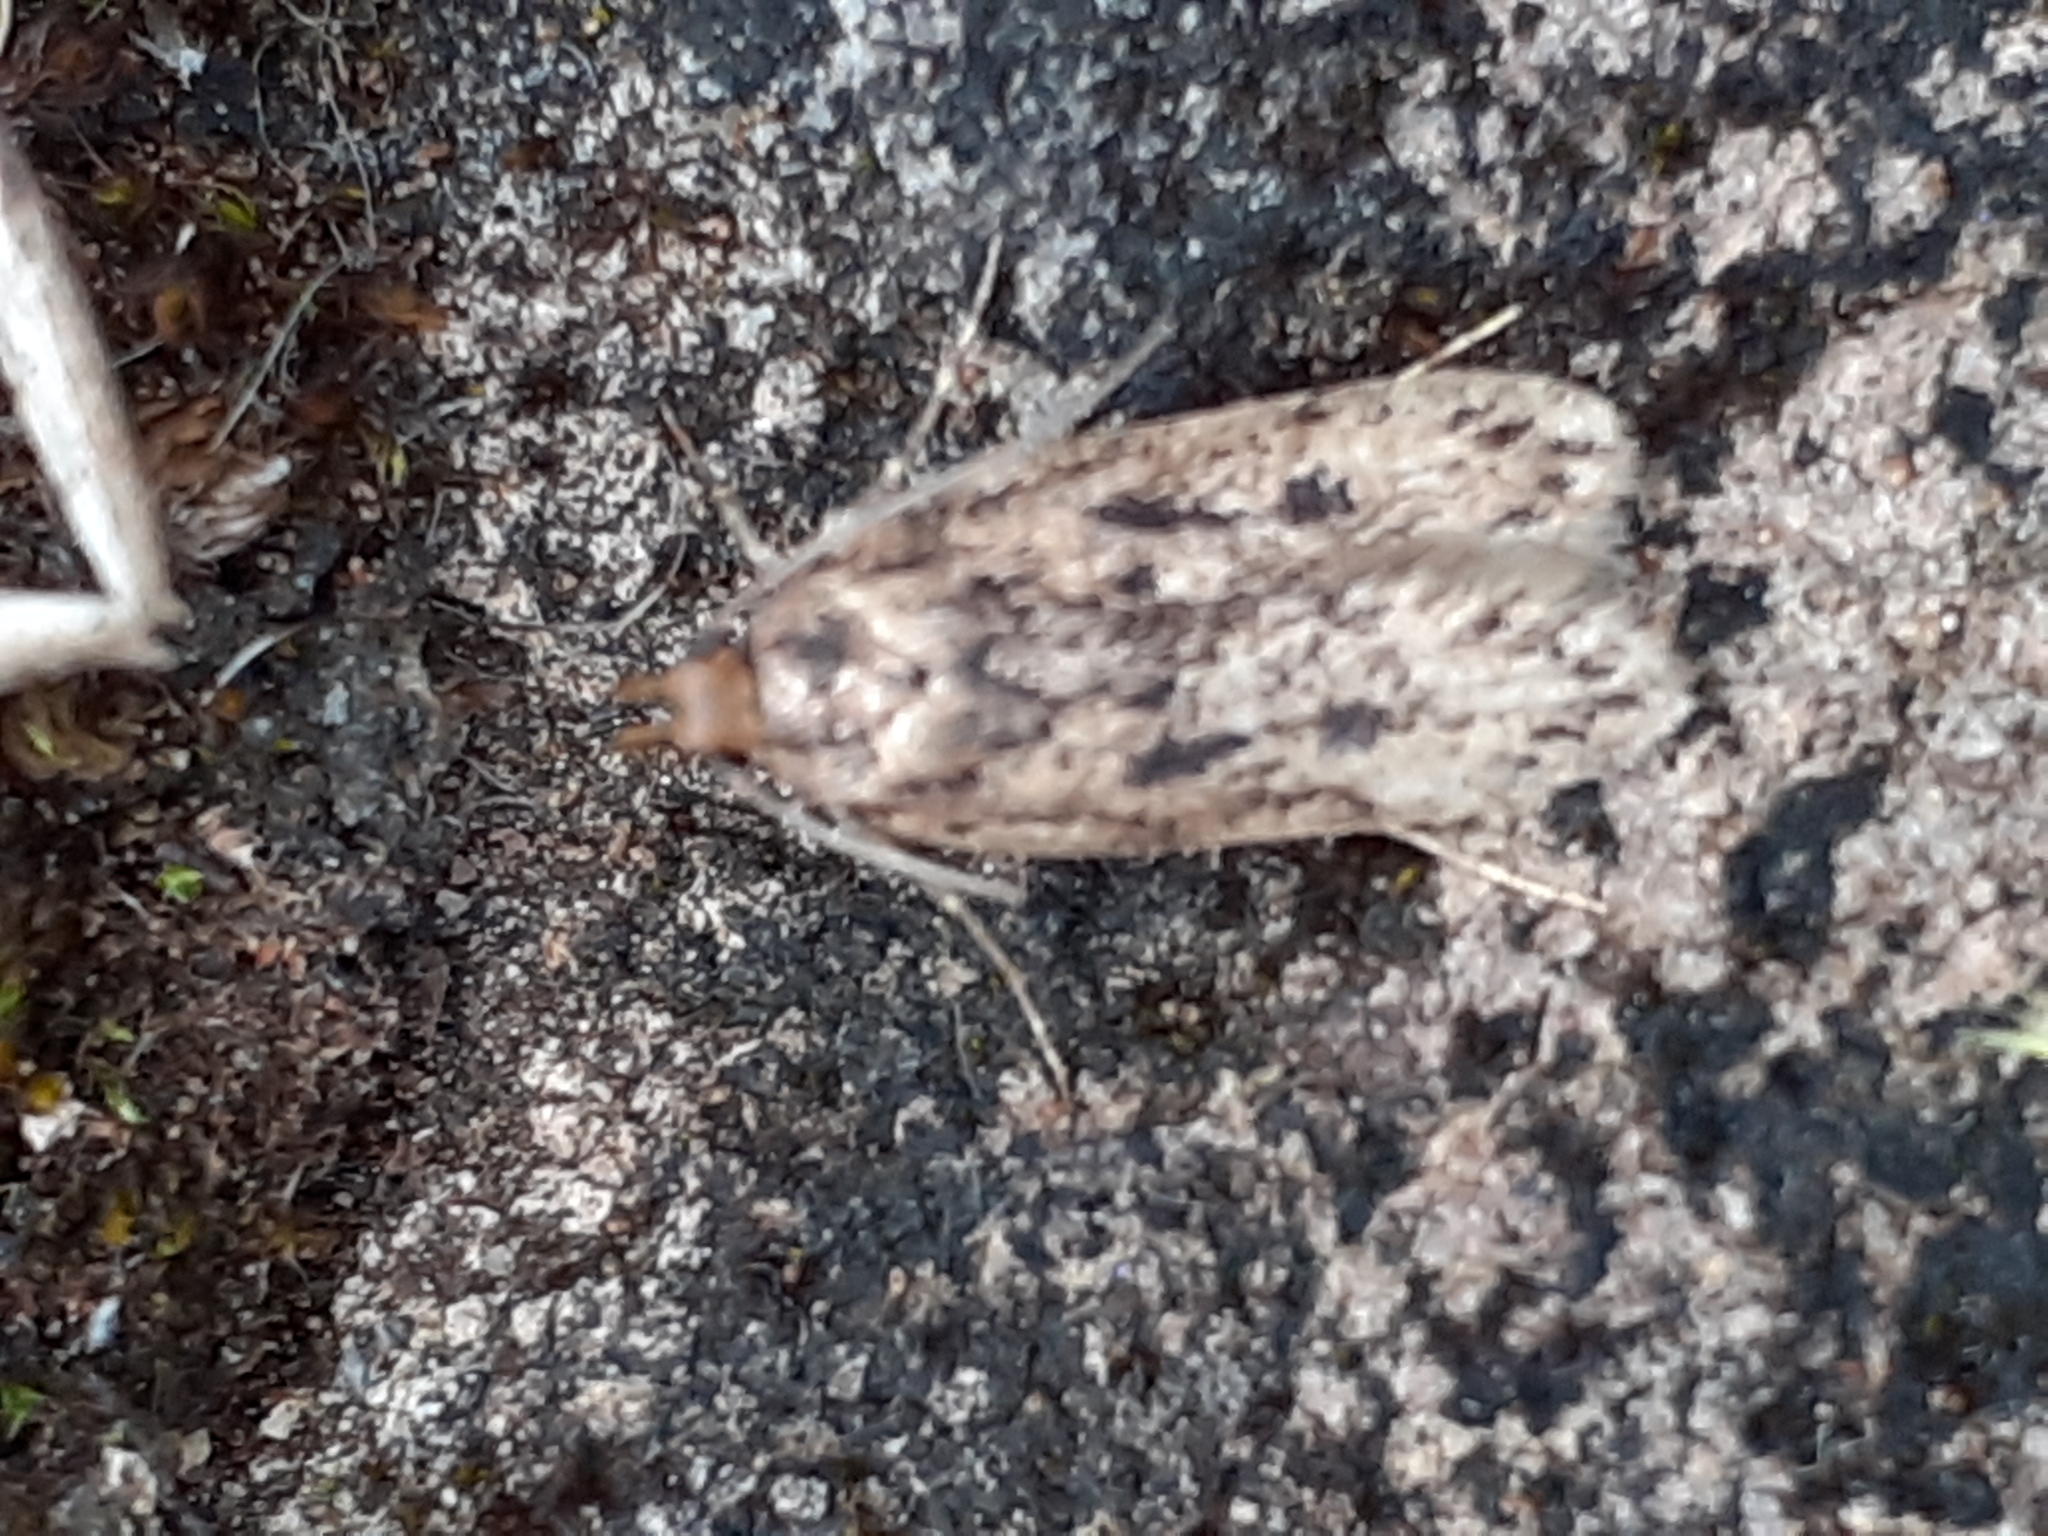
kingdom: Animalia
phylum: Arthropoda
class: Insecta
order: Lepidoptera
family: Oecophoridae
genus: Hofmannophila
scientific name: Hofmannophila pseudospretella
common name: Brown house moth
